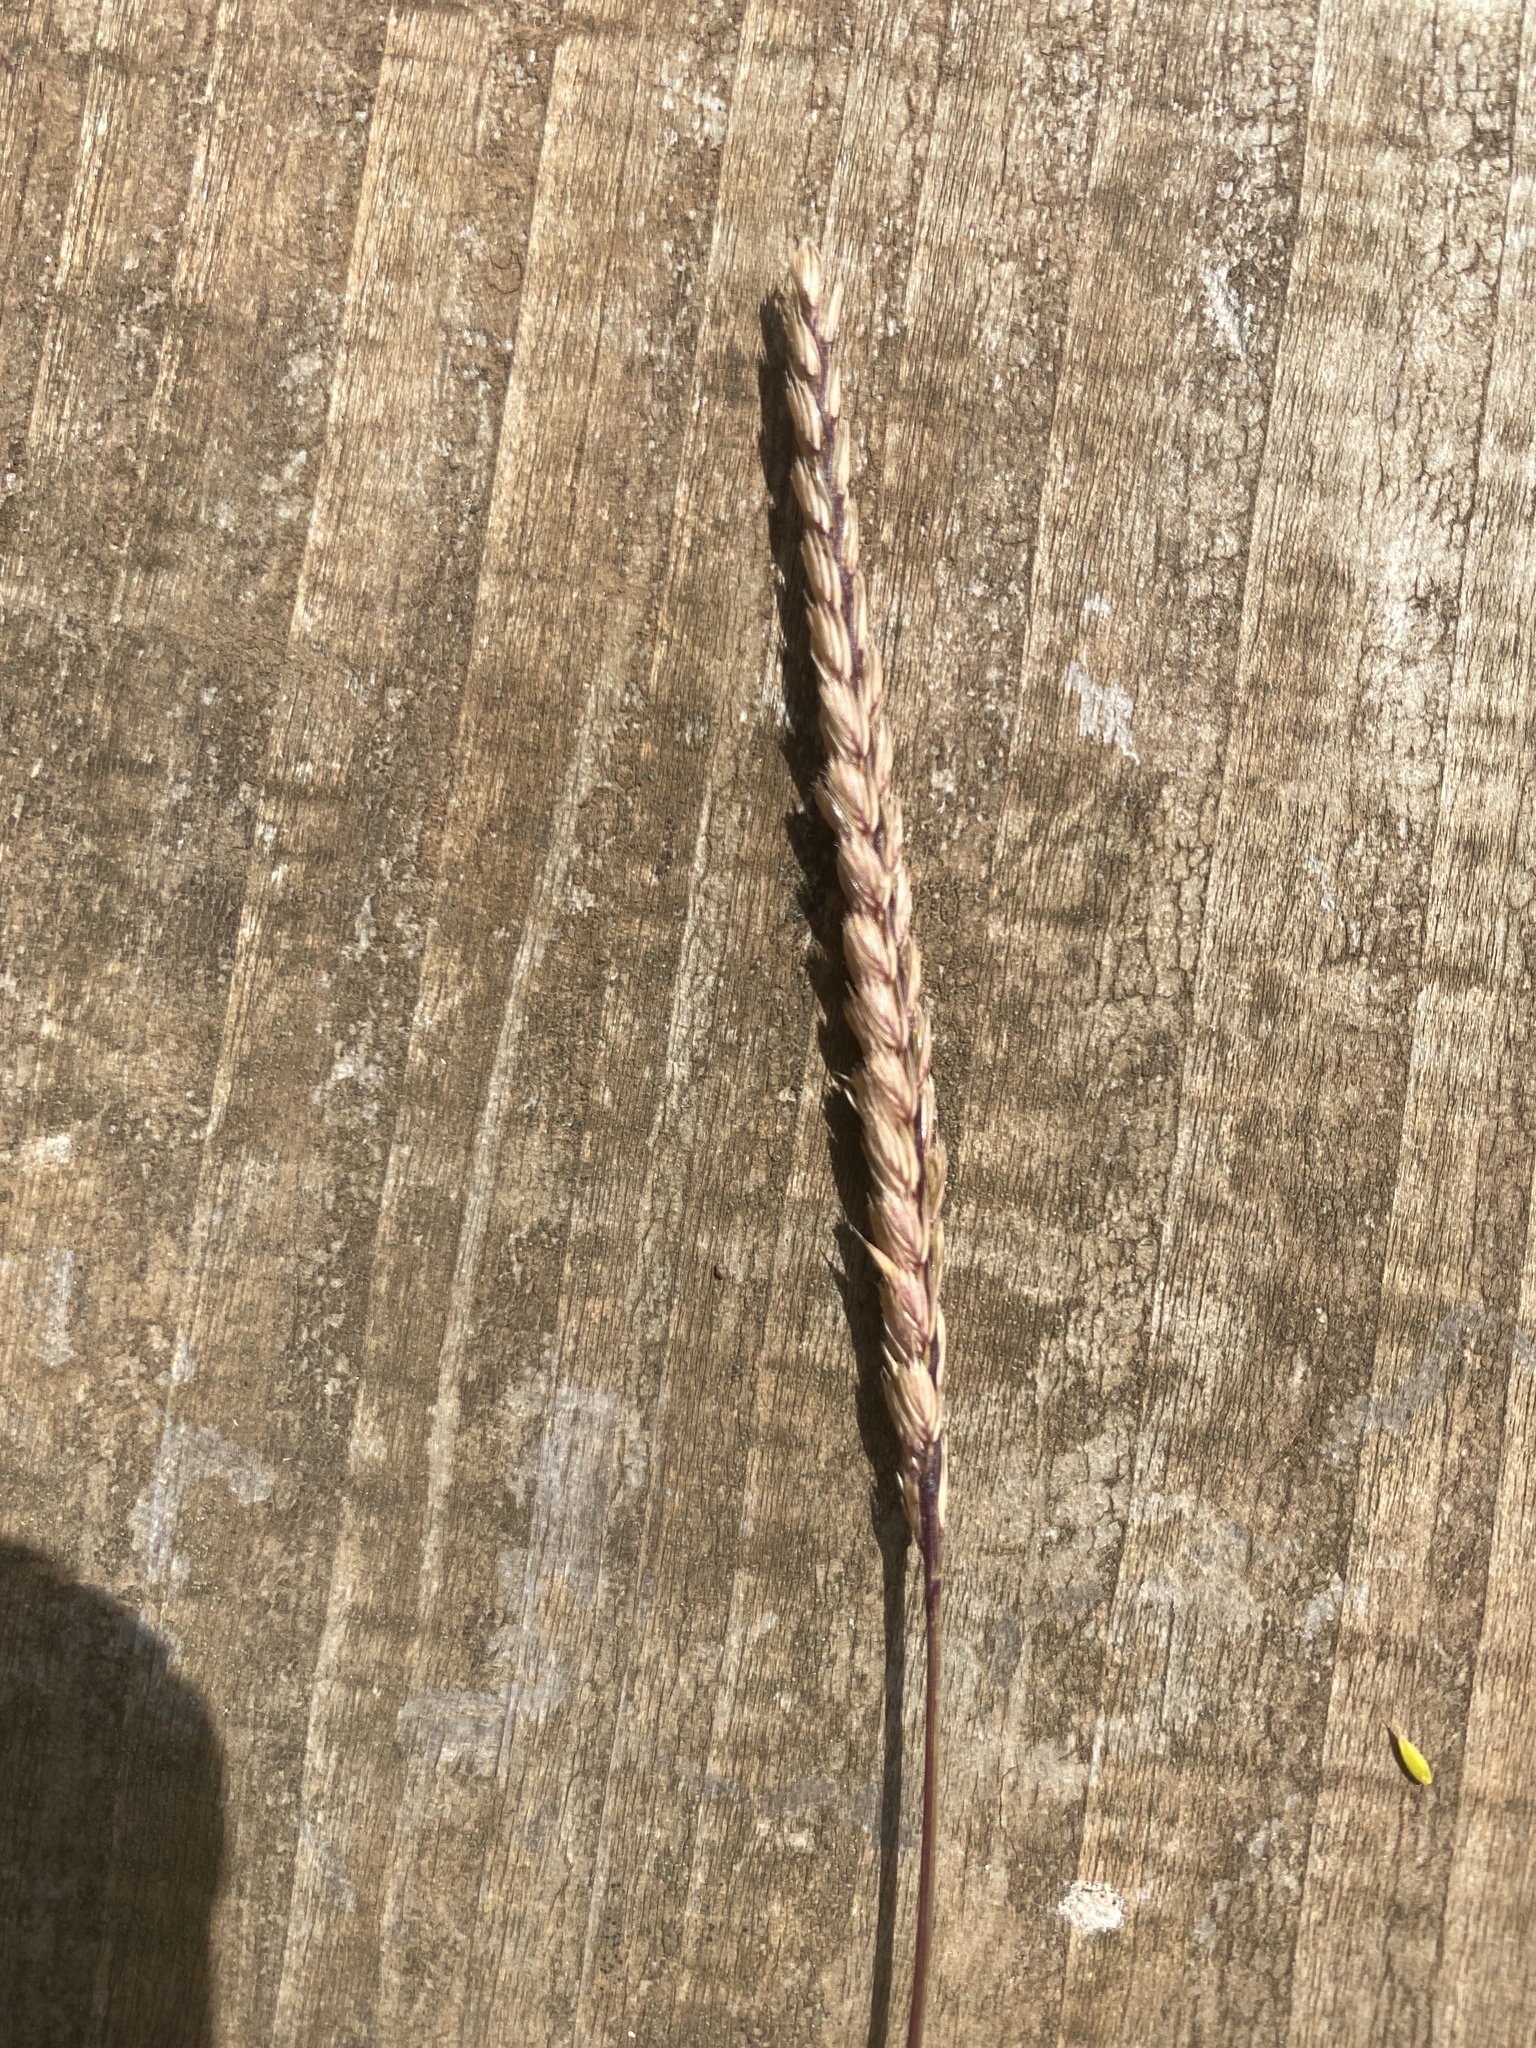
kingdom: Plantae
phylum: Tracheophyta
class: Liliopsida
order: Poales
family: Poaceae
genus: Cynosurus
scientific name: Cynosurus cristatus
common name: Crested dog's-tail
